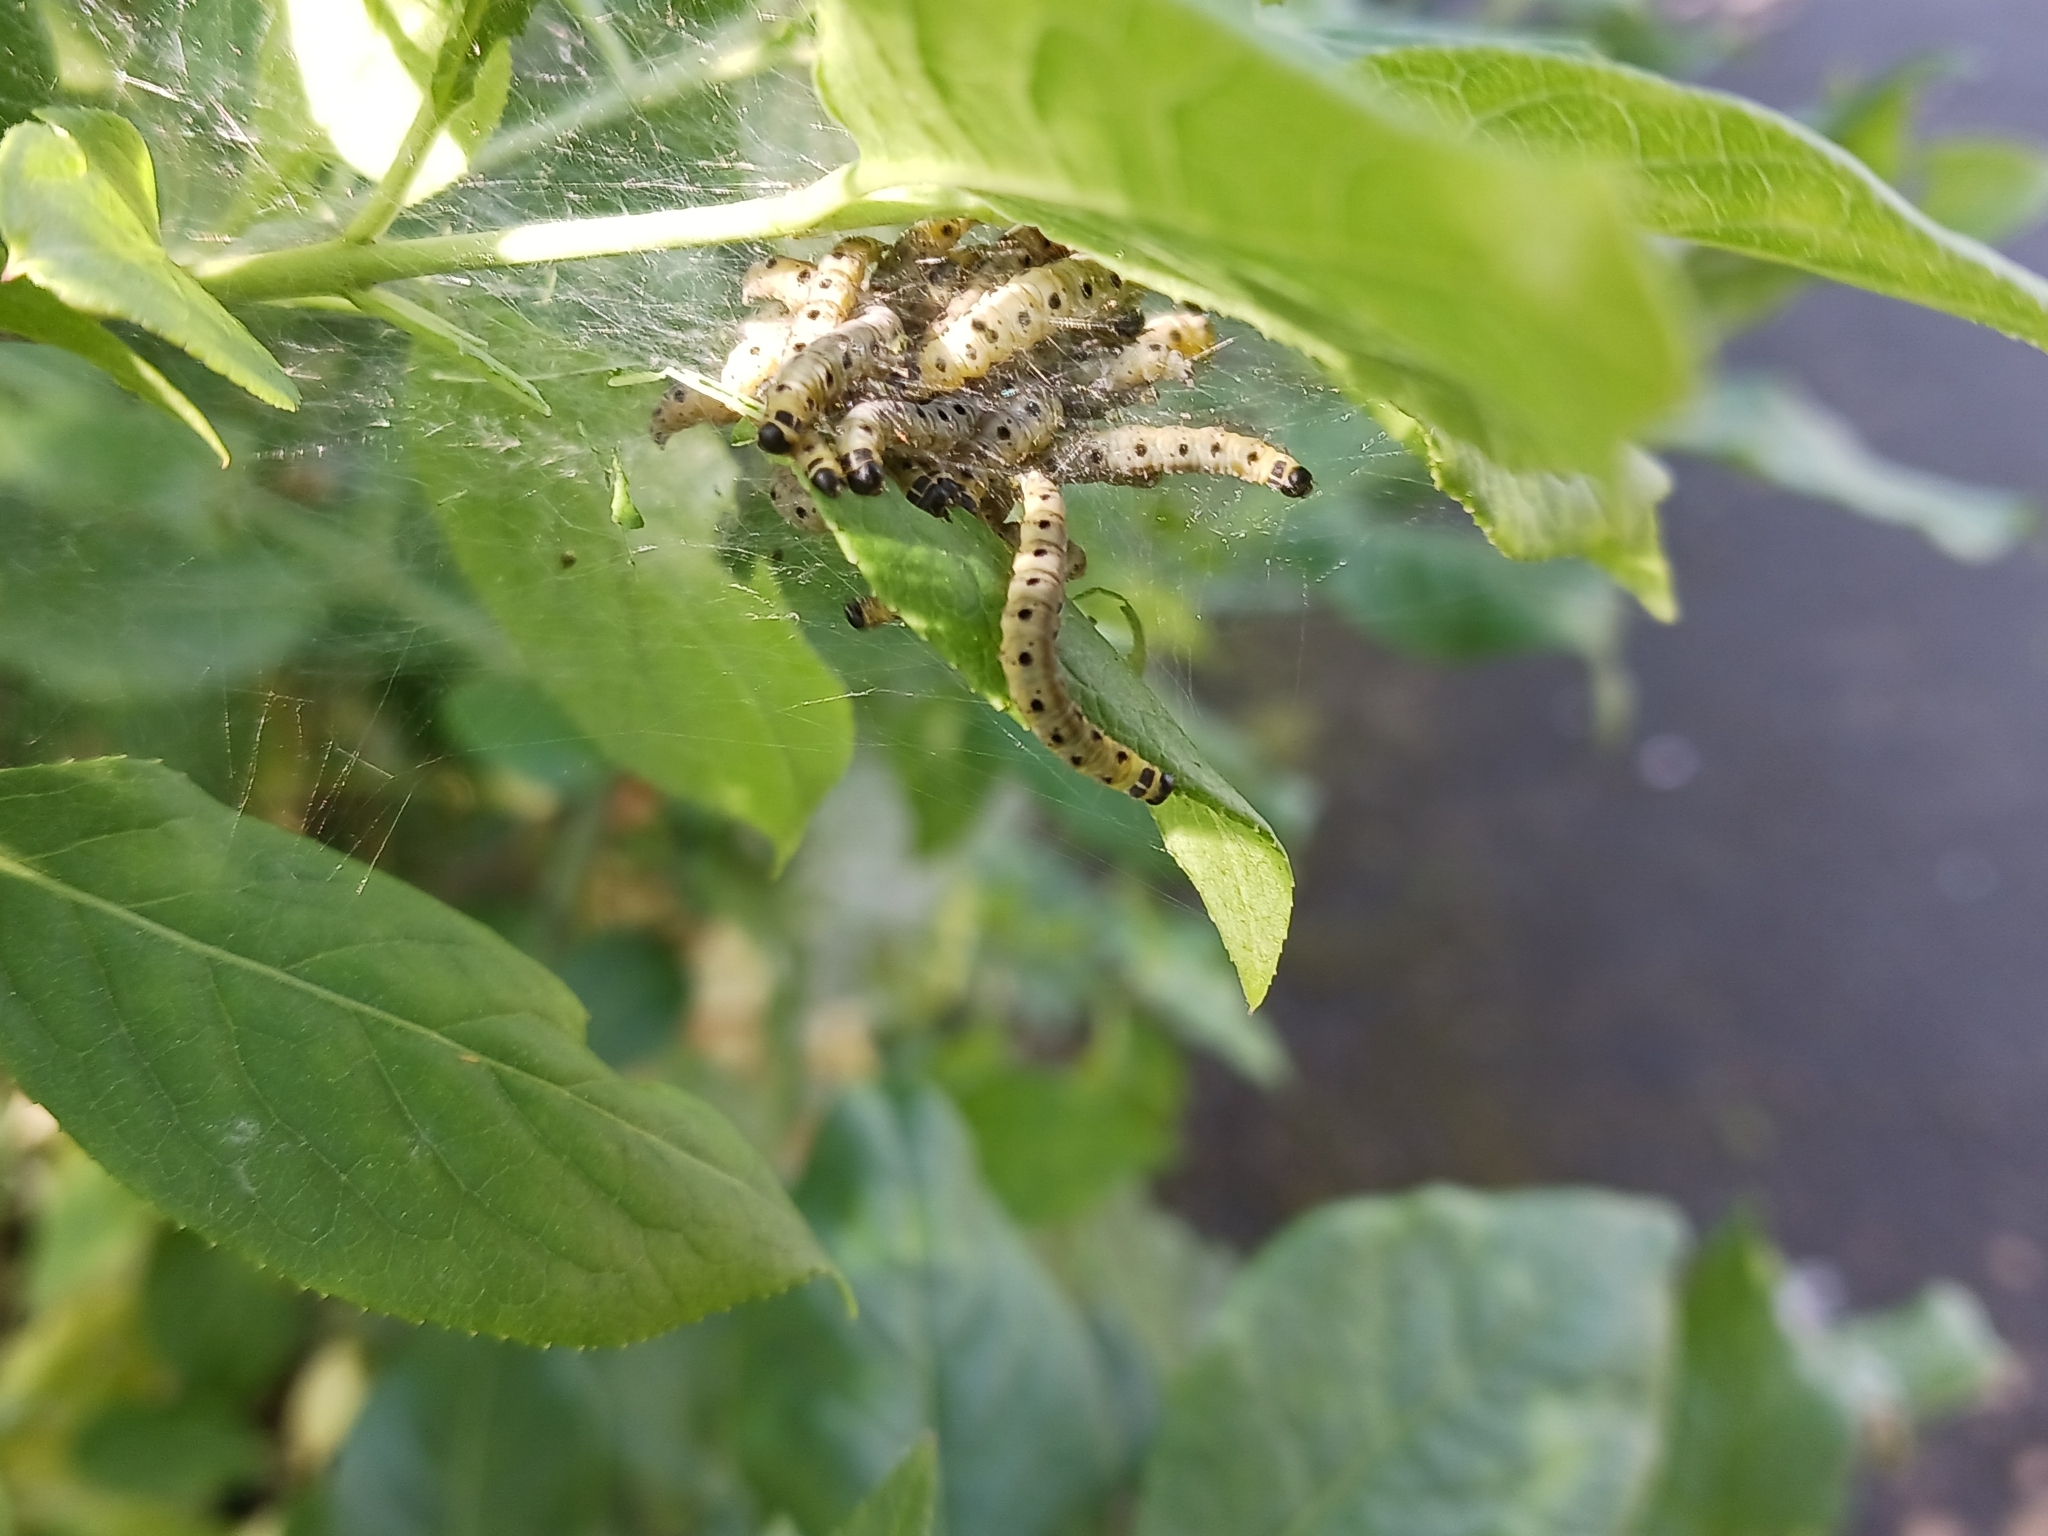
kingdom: Animalia
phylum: Arthropoda
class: Insecta
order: Lepidoptera
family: Yponomeutidae
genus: Yponomeuta
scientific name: Yponomeuta cagnagellus
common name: Spindle ermine
